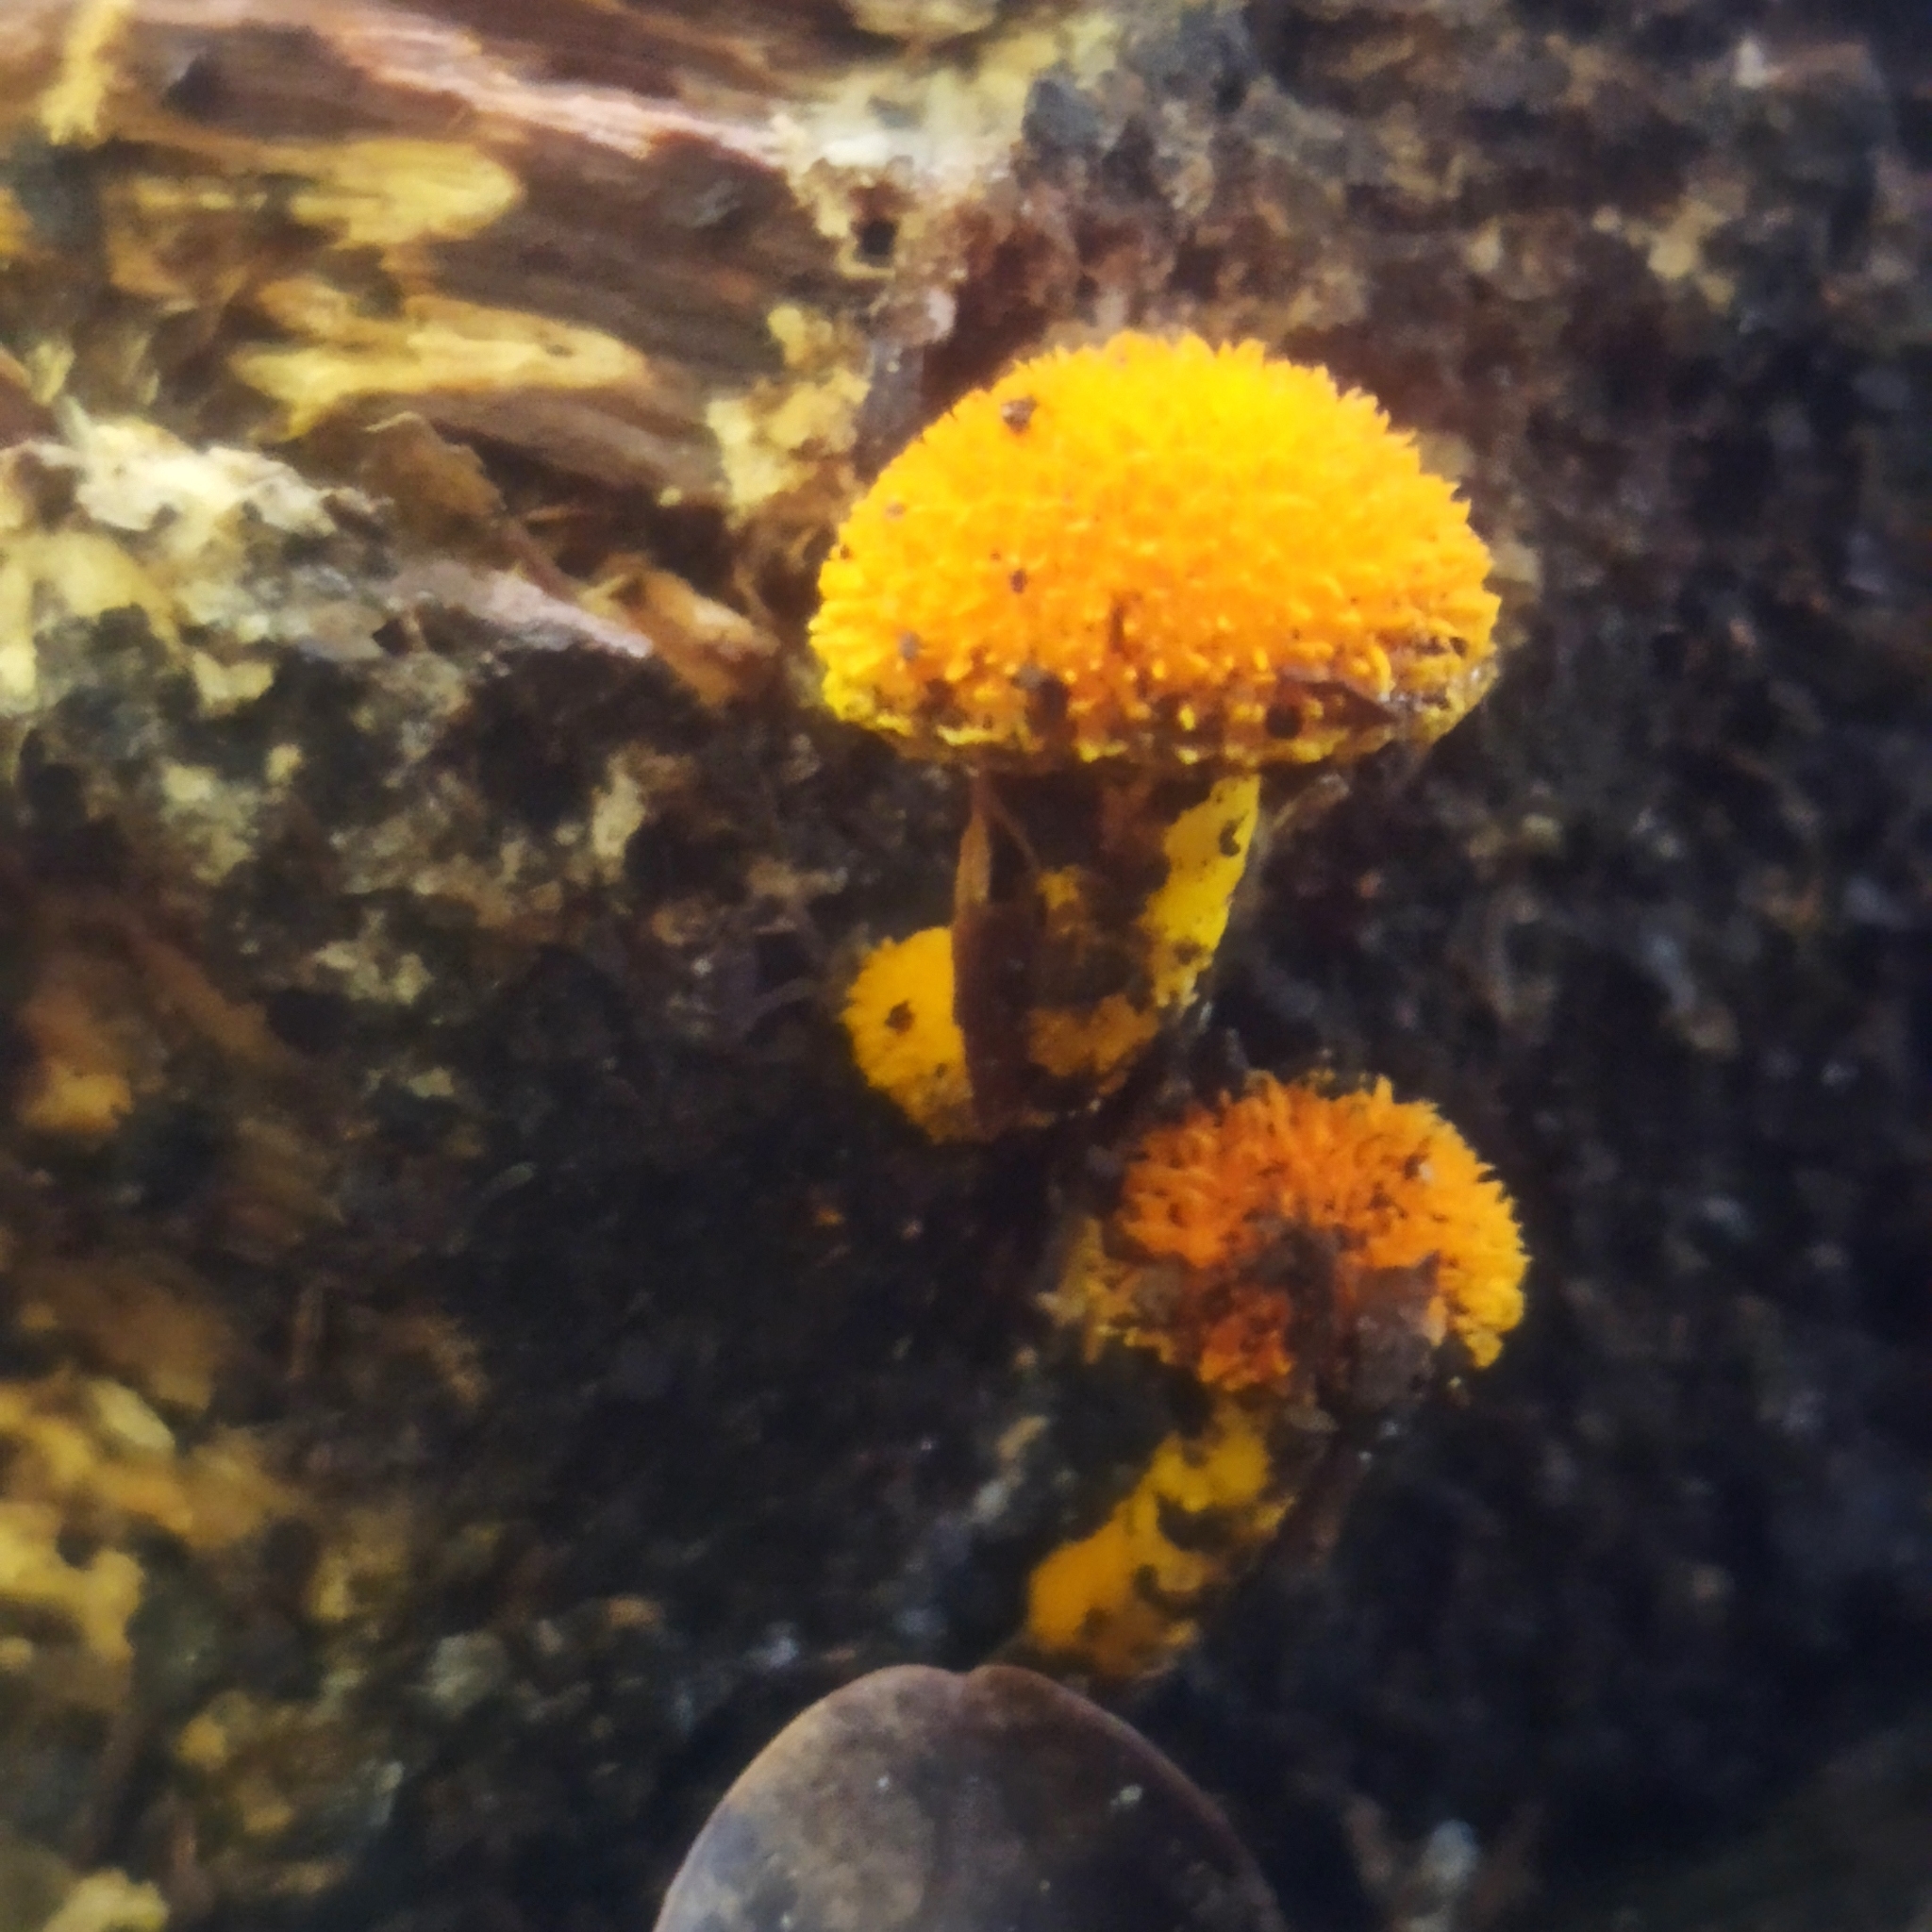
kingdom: Fungi
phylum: Basidiomycota
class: Agaricomycetes
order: Agaricales
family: Physalacriaceae
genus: Cyptotrama
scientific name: Cyptotrama asprata
